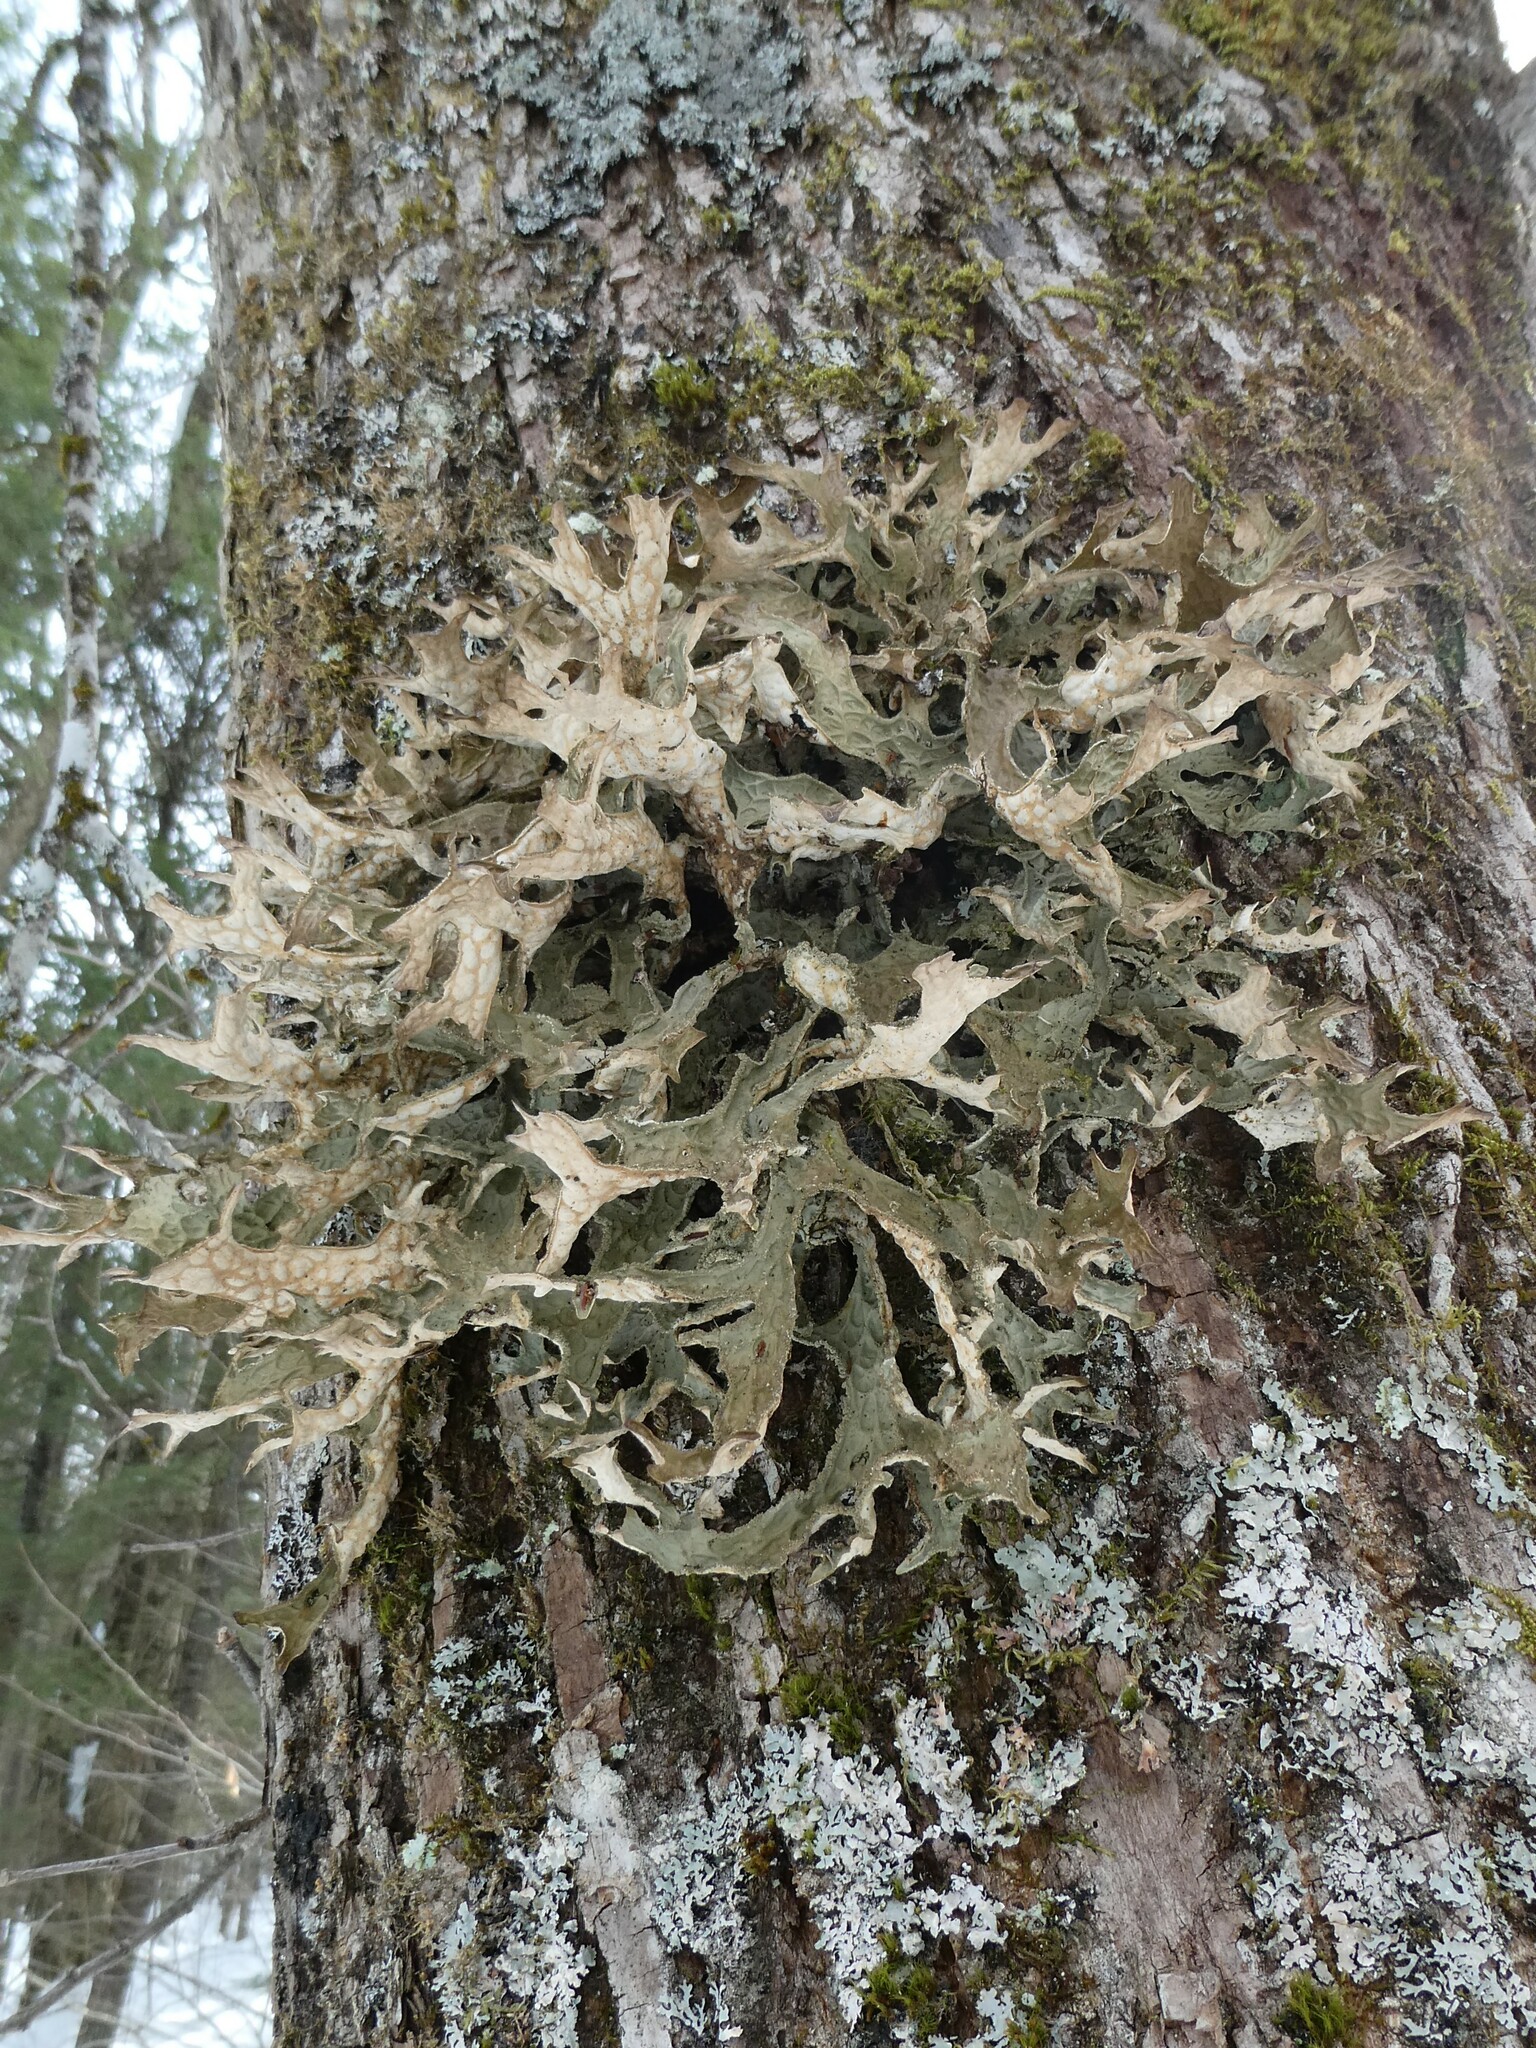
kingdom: Plantae
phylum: Tracheophyta
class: Magnoliopsida
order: Malvales
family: Malvaceae
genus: Tilia
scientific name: Tilia americana
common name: Basswood
